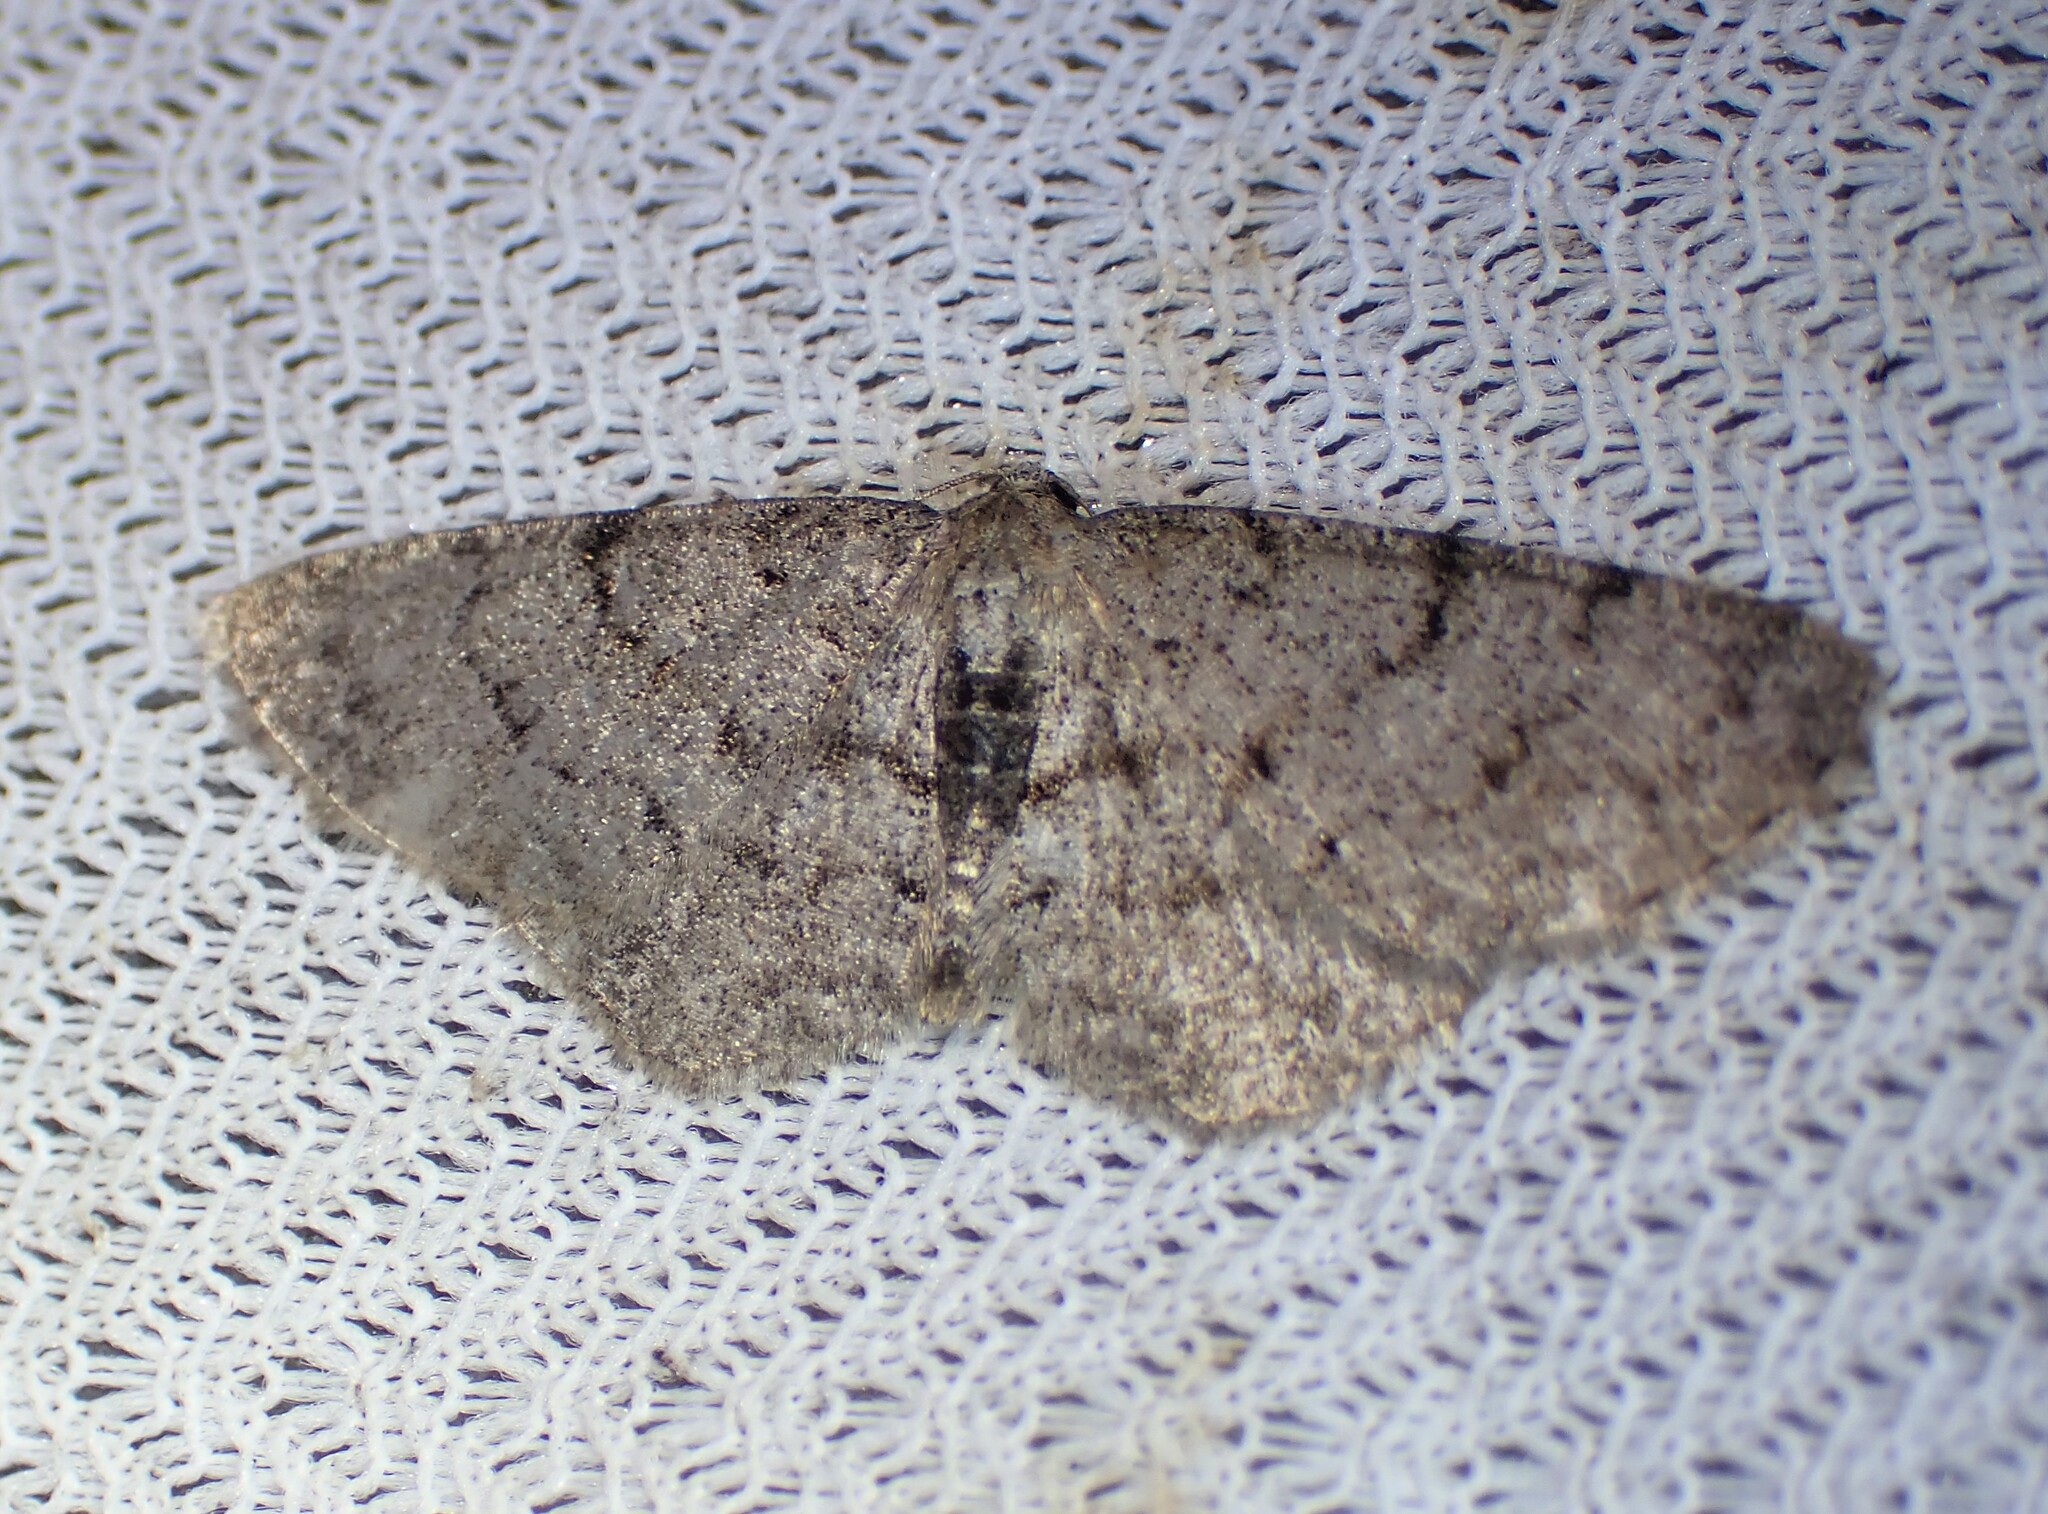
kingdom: Animalia
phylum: Arthropoda
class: Insecta
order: Lepidoptera
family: Geometridae
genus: Aethalura
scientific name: Aethalura intertexta
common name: Four-barred gray
